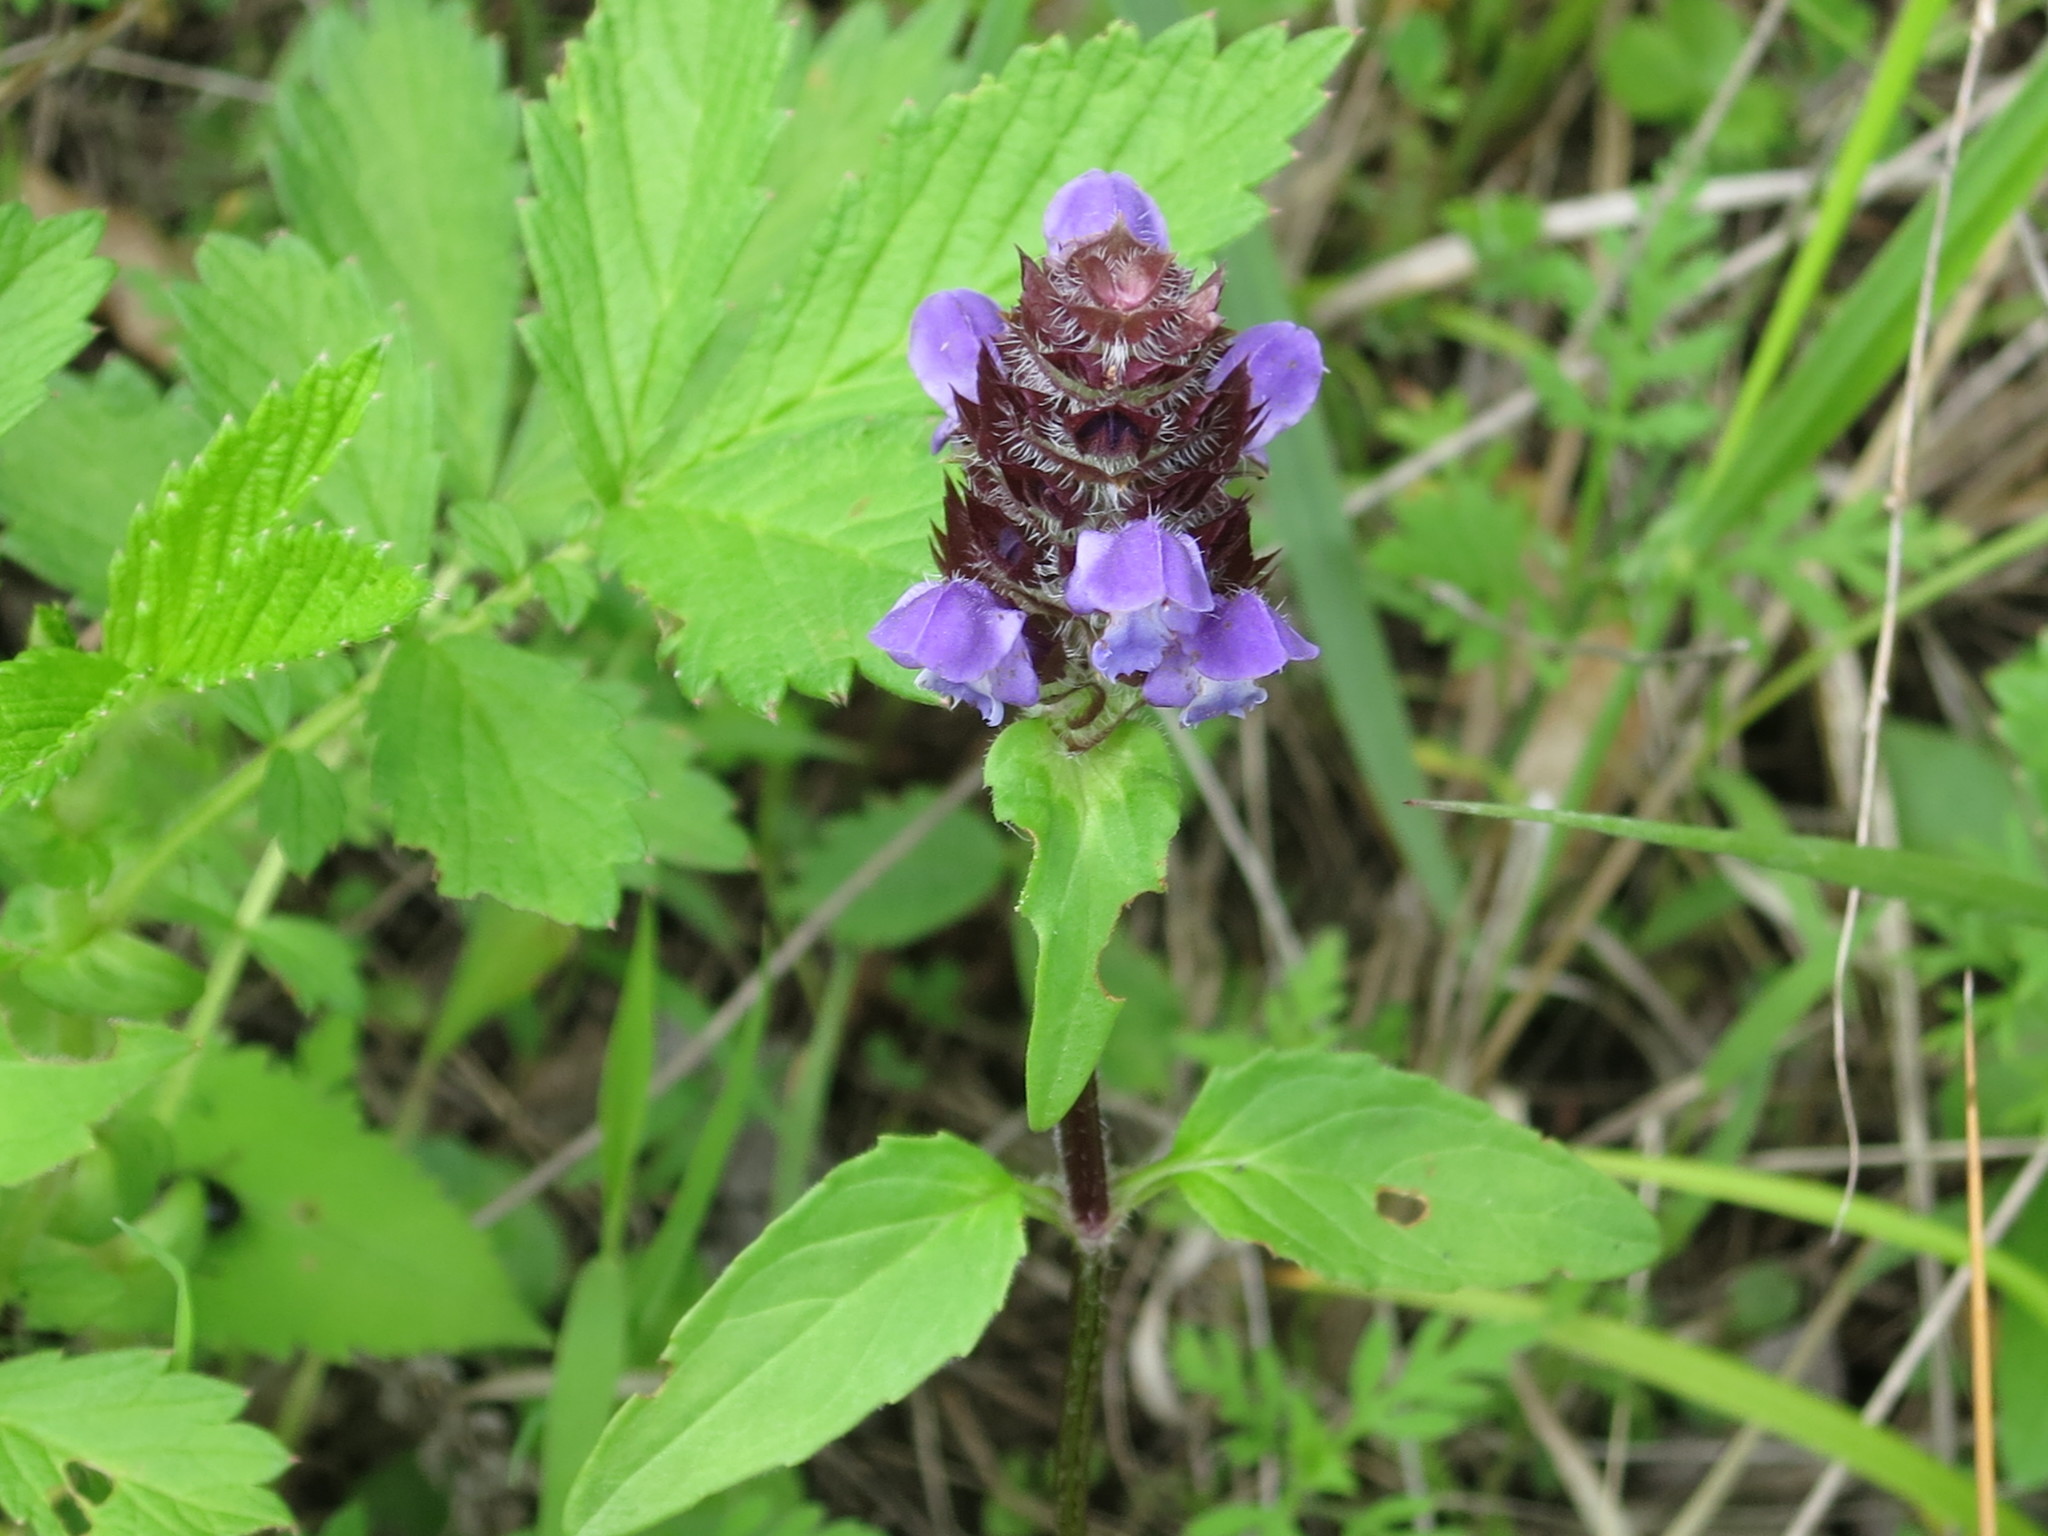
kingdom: Plantae
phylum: Tracheophyta
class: Magnoliopsida
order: Lamiales
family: Lamiaceae
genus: Prunella
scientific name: Prunella vulgaris
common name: Heal-all
